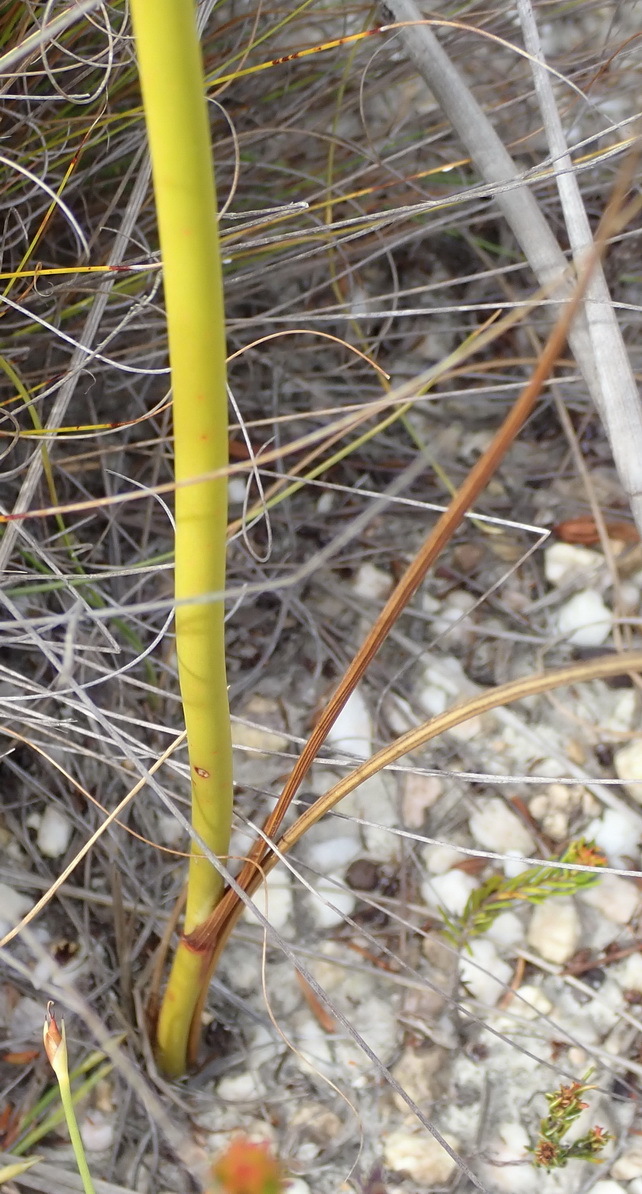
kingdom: Plantae
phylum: Tracheophyta
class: Liliopsida
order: Asparagales
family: Iridaceae
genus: Tritoniopsis
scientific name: Tritoniopsis triticea
